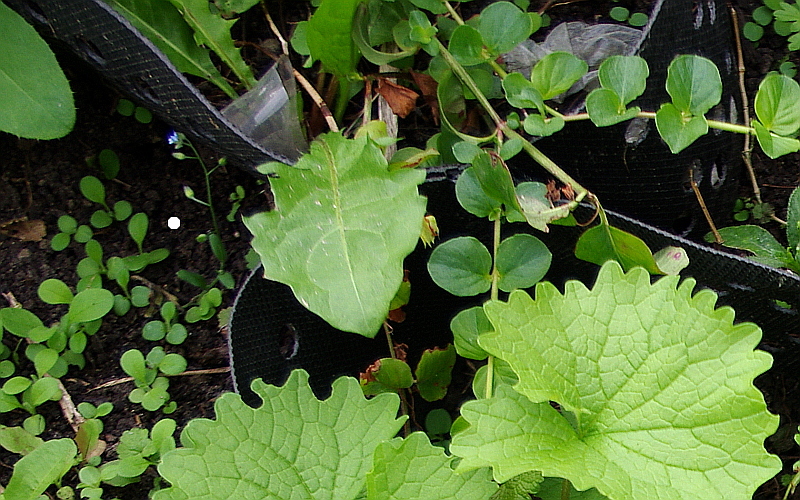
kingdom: Plantae
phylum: Tracheophyta
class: Magnoliopsida
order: Boraginales
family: Boraginaceae
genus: Myosotis
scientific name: Myosotis arvensis
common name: Field forget-me-not
